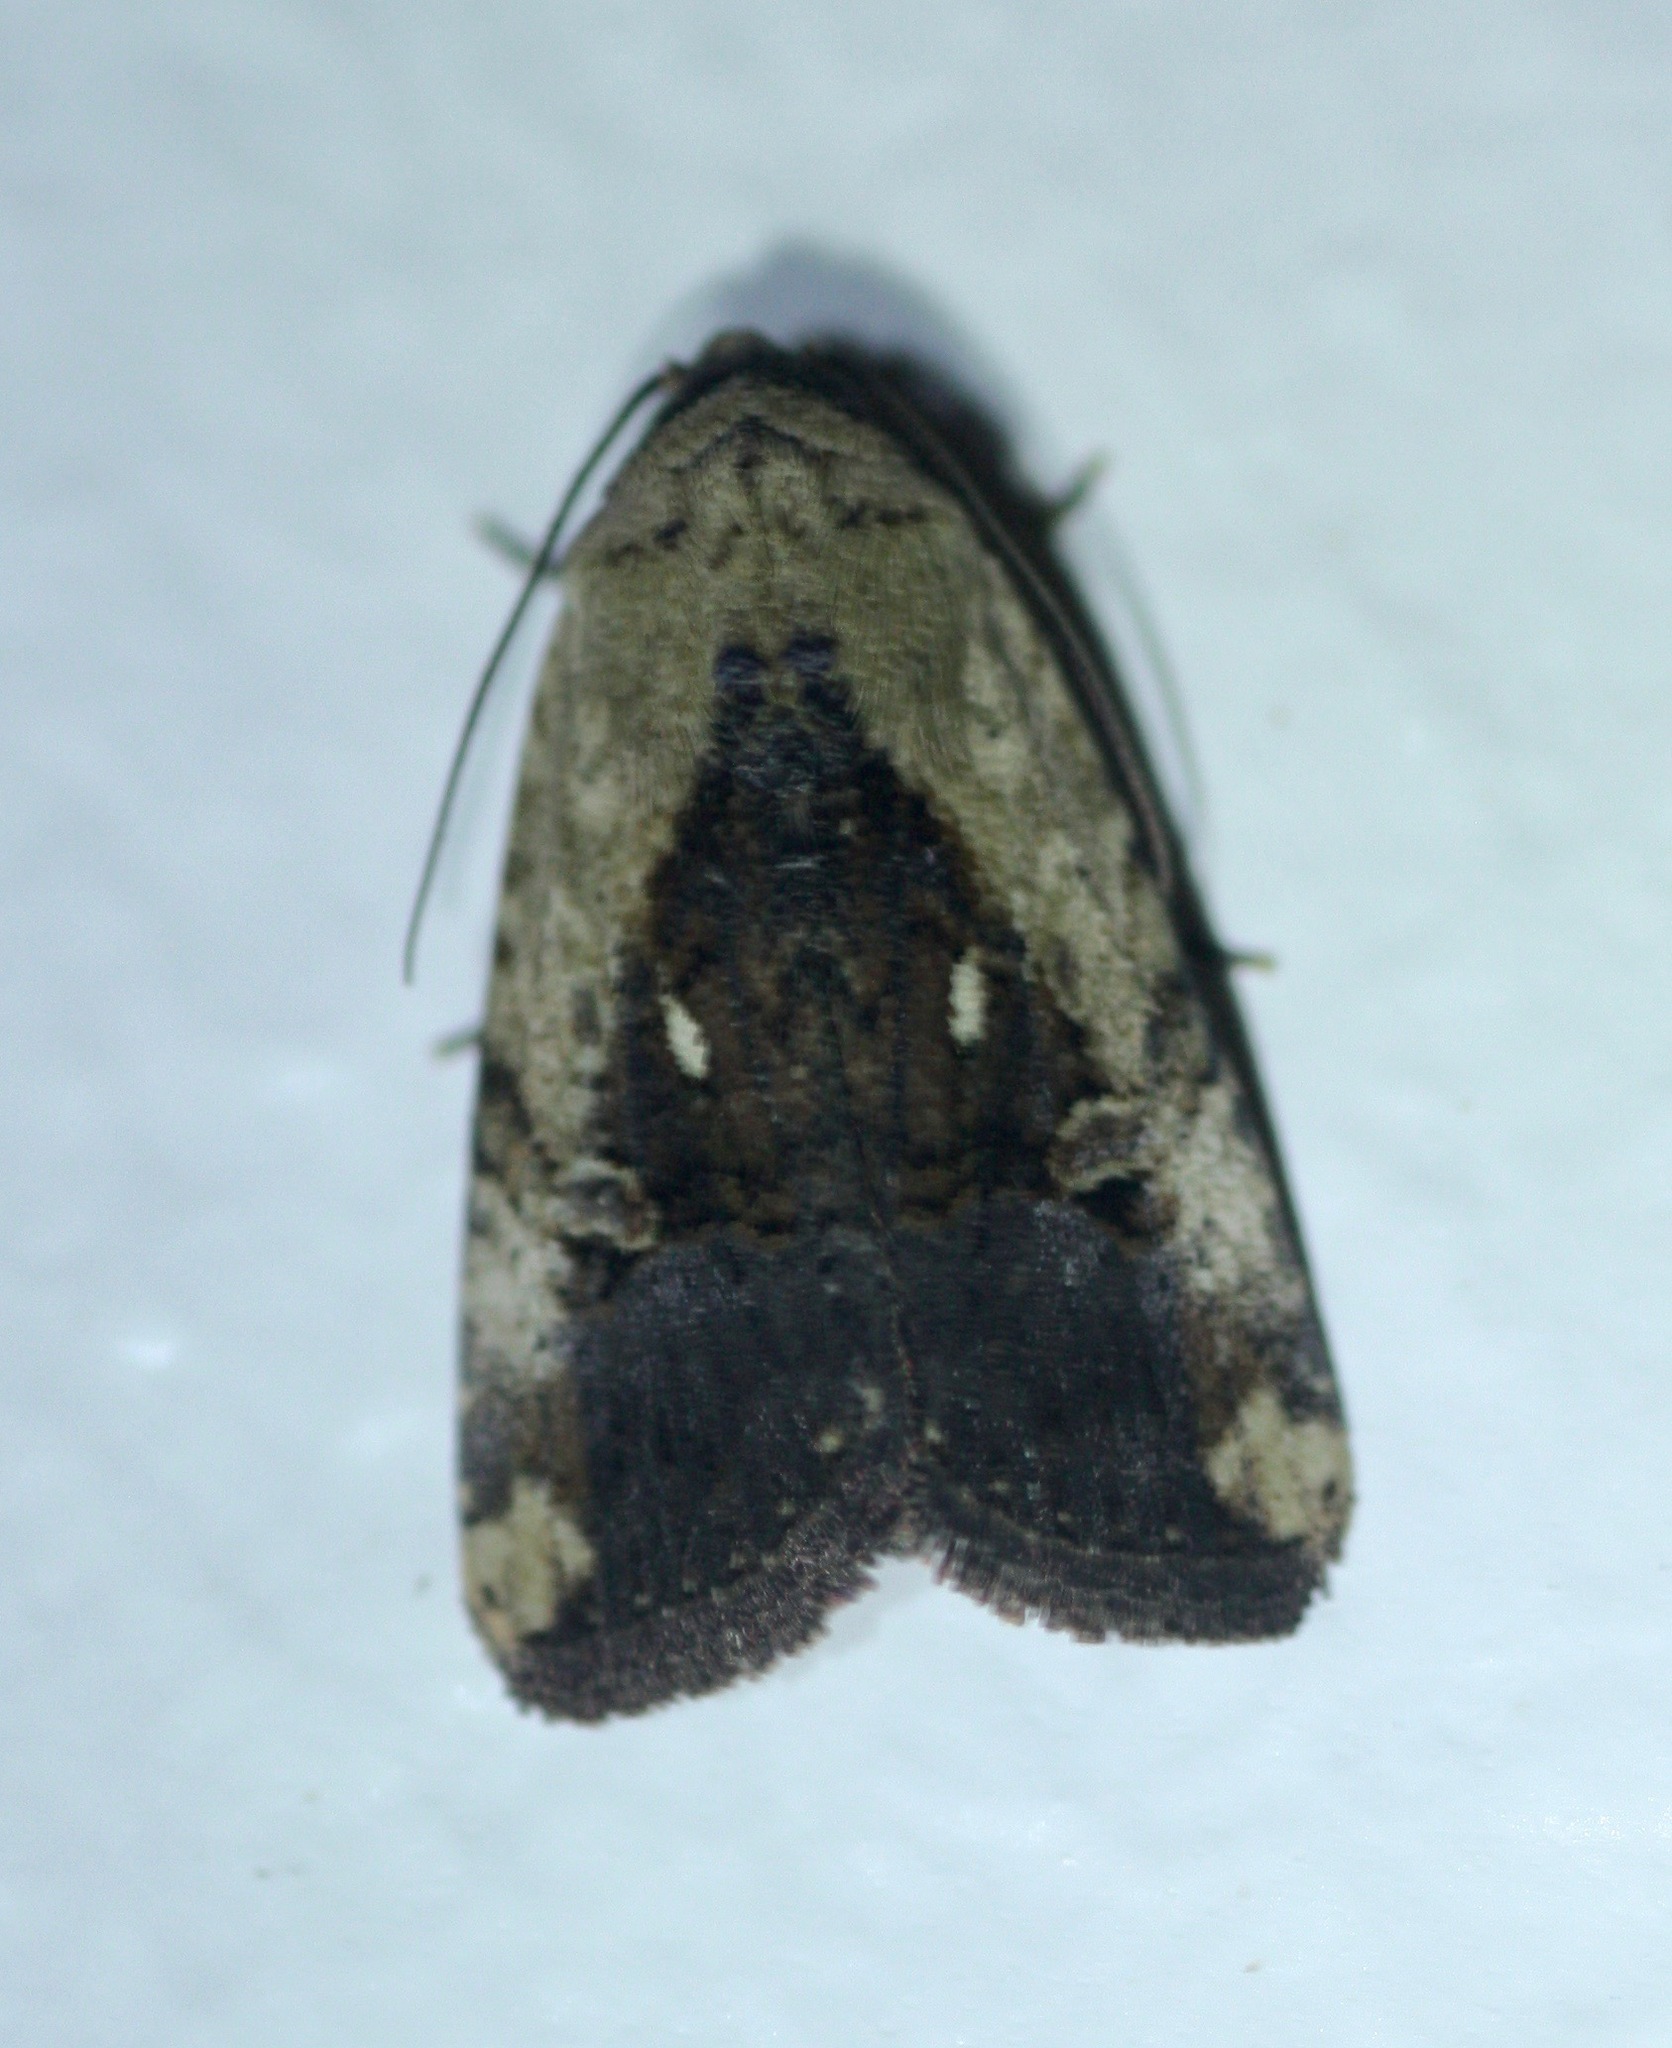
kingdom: Animalia
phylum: Arthropoda
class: Insecta
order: Lepidoptera
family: Noctuidae
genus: Elaphria
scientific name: Elaphria agrotina
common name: Agrotina midget
